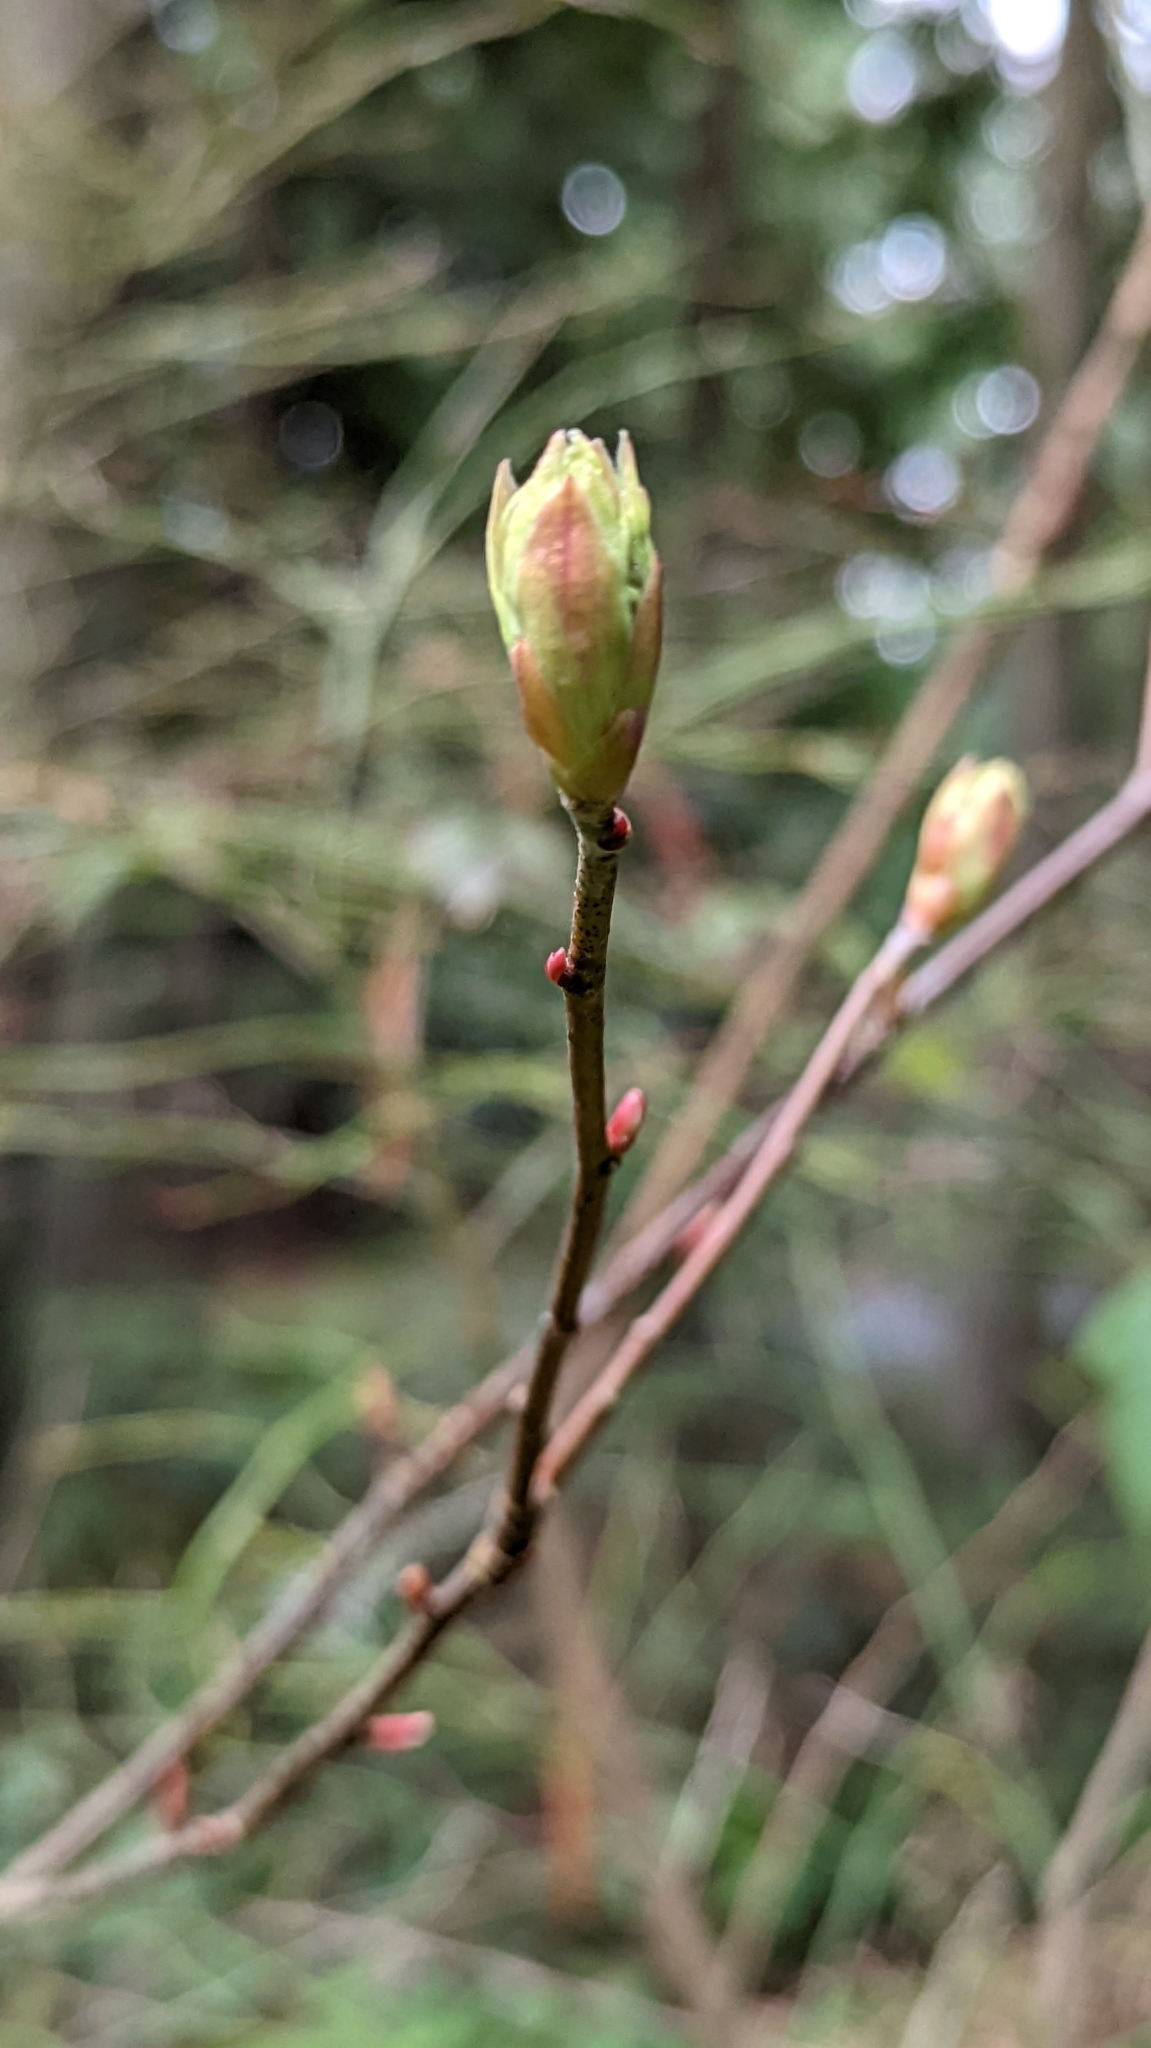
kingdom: Plantae
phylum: Tracheophyta
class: Magnoliopsida
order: Rosales
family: Rosaceae
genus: Oemleria
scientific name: Oemleria cerasiformis
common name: Osoberry
